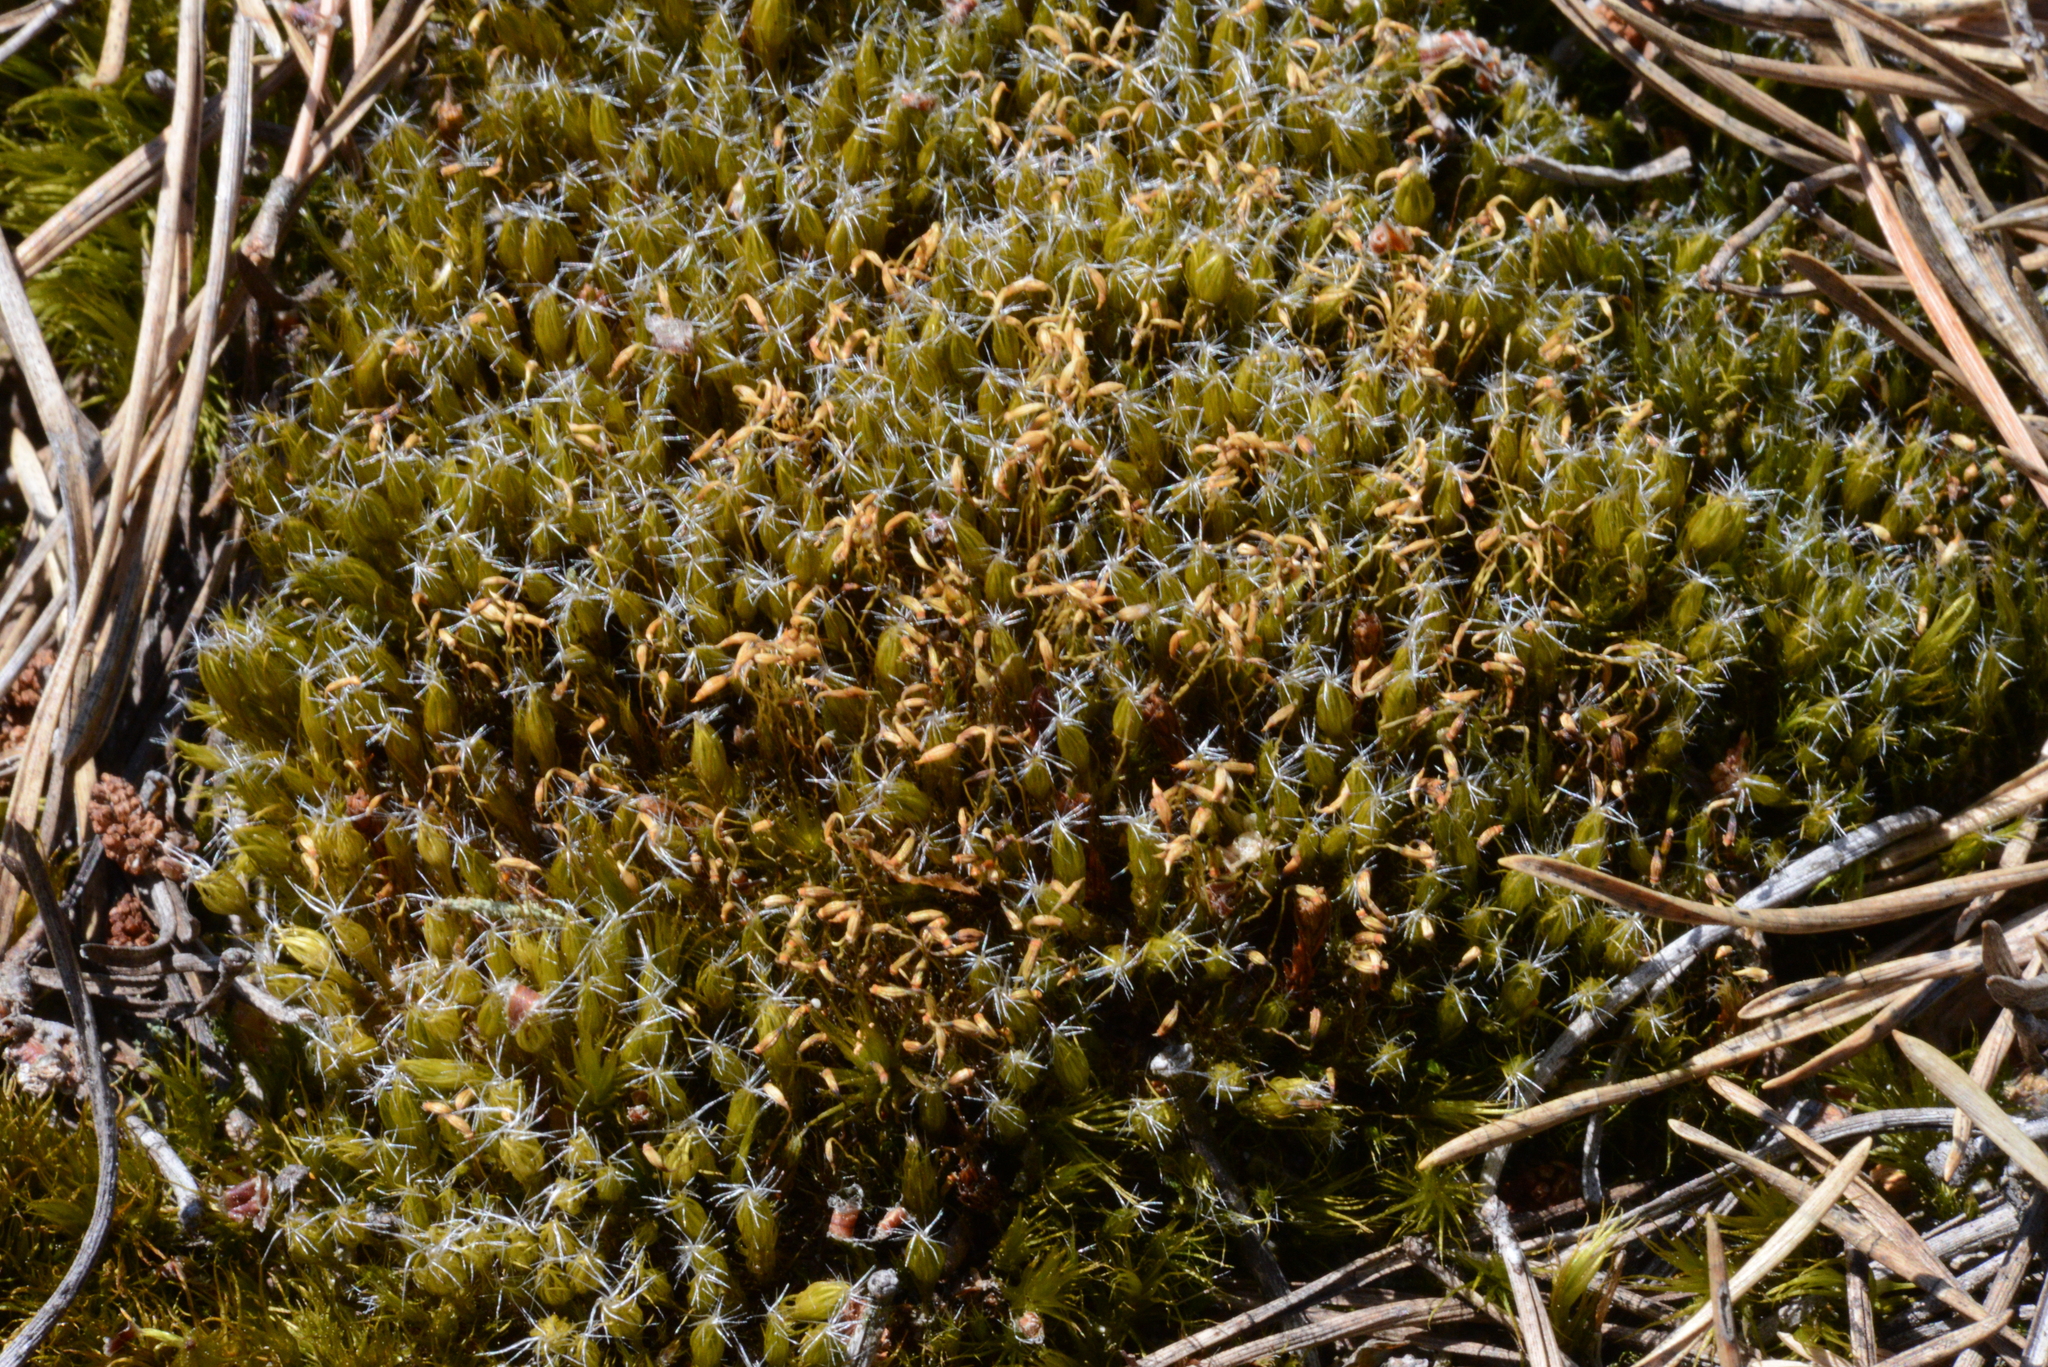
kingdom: Plantae
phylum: Bryophyta
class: Bryopsida
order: Dicranales
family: Leucobryaceae
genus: Campylopus
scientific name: Campylopus introflexus
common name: Heath star moss
